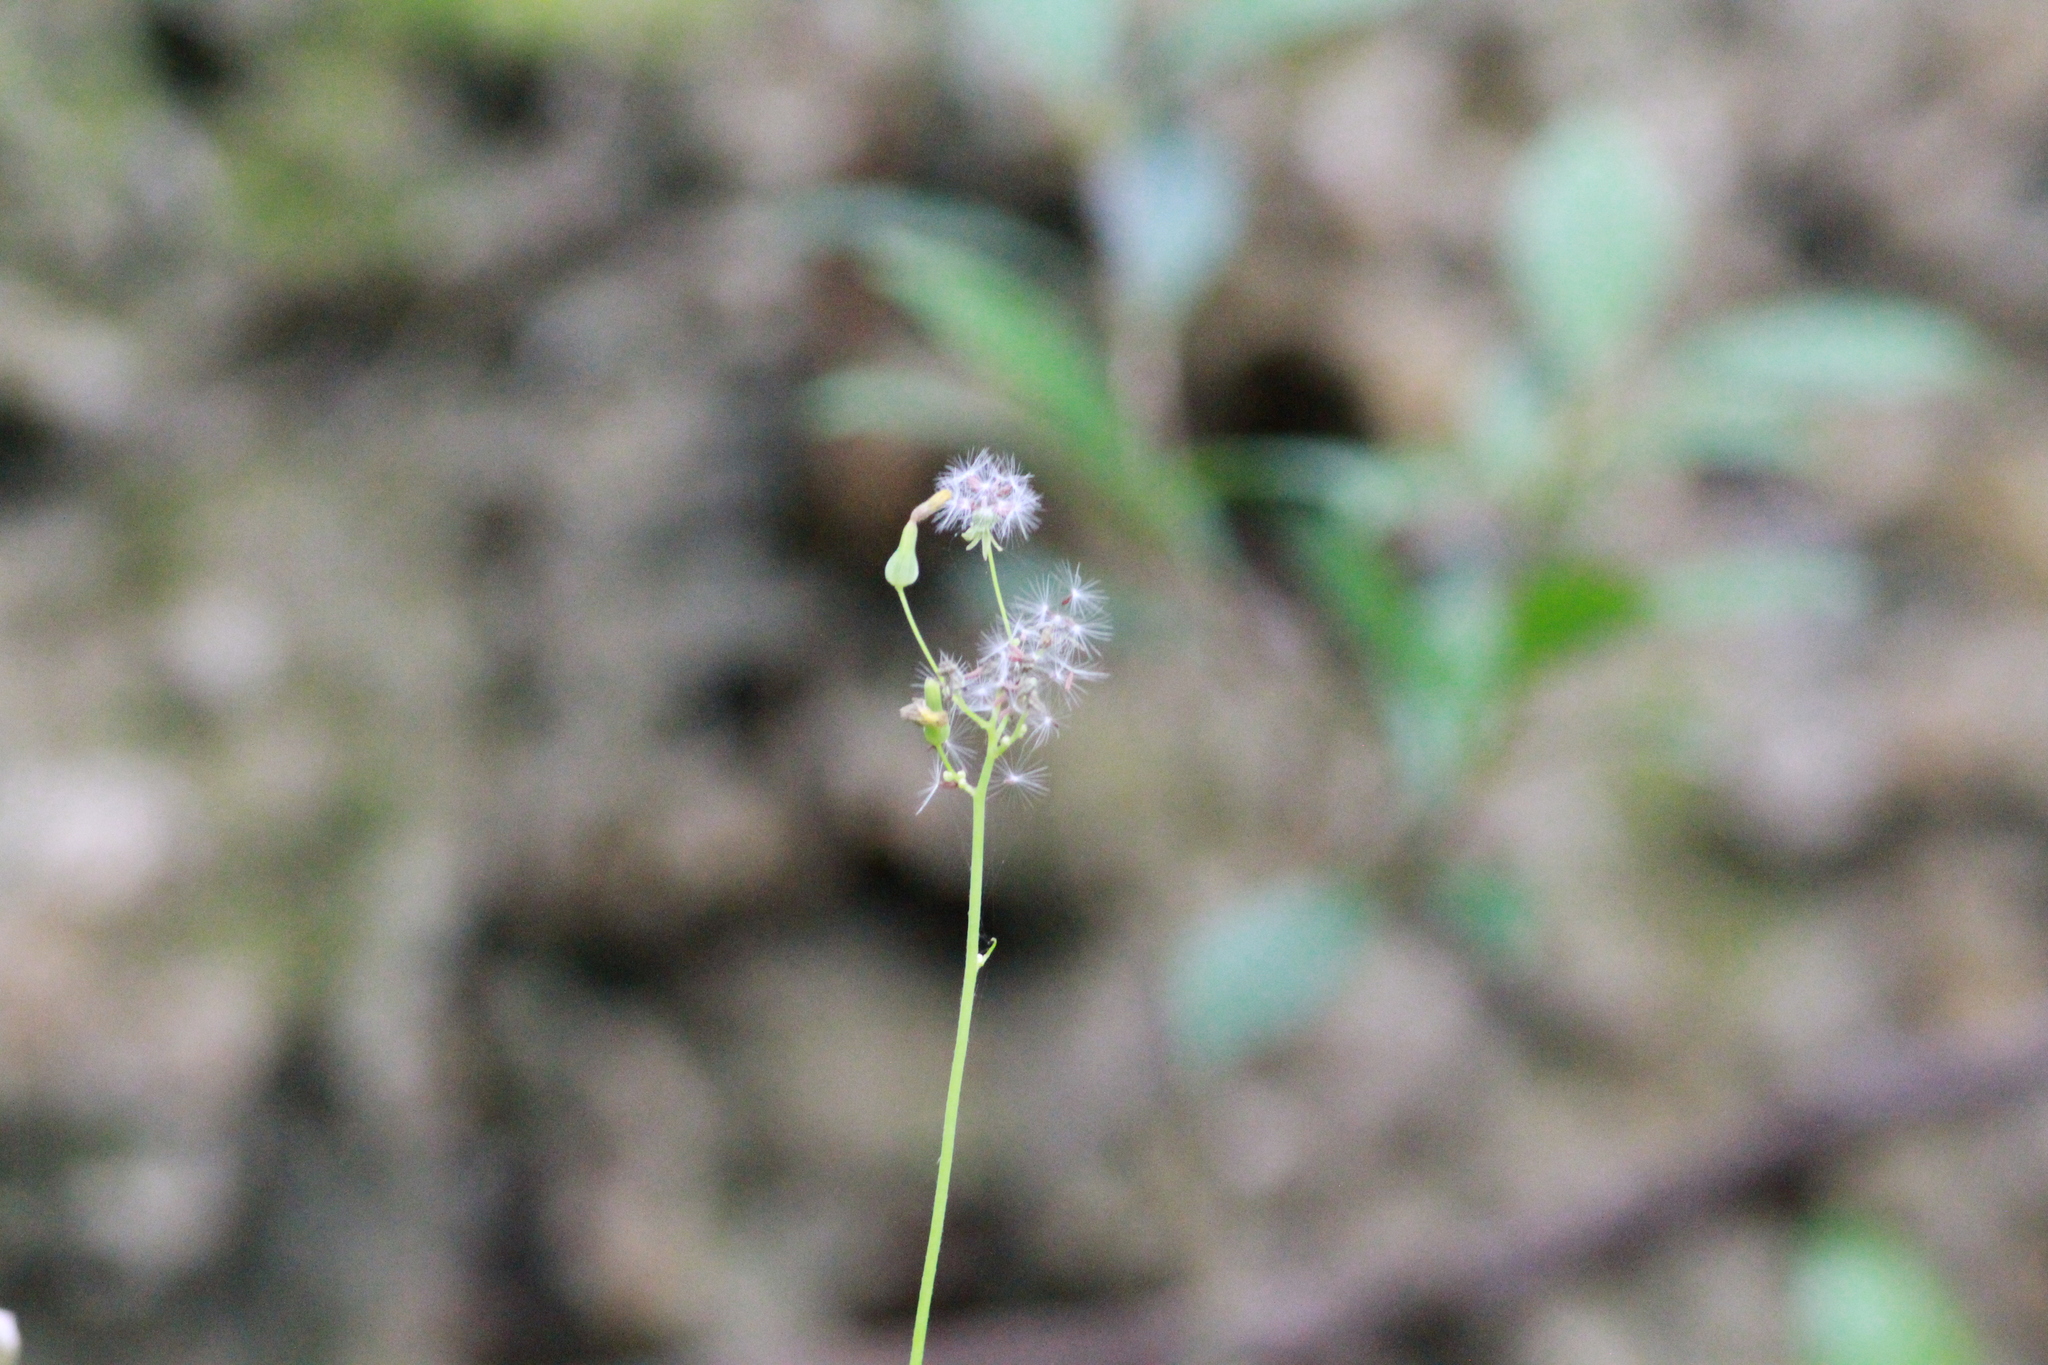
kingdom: Plantae
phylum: Tracheophyta
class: Magnoliopsida
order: Asterales
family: Asteraceae
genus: Youngia
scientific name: Youngia japonica
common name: Oriental false hawksbeard
